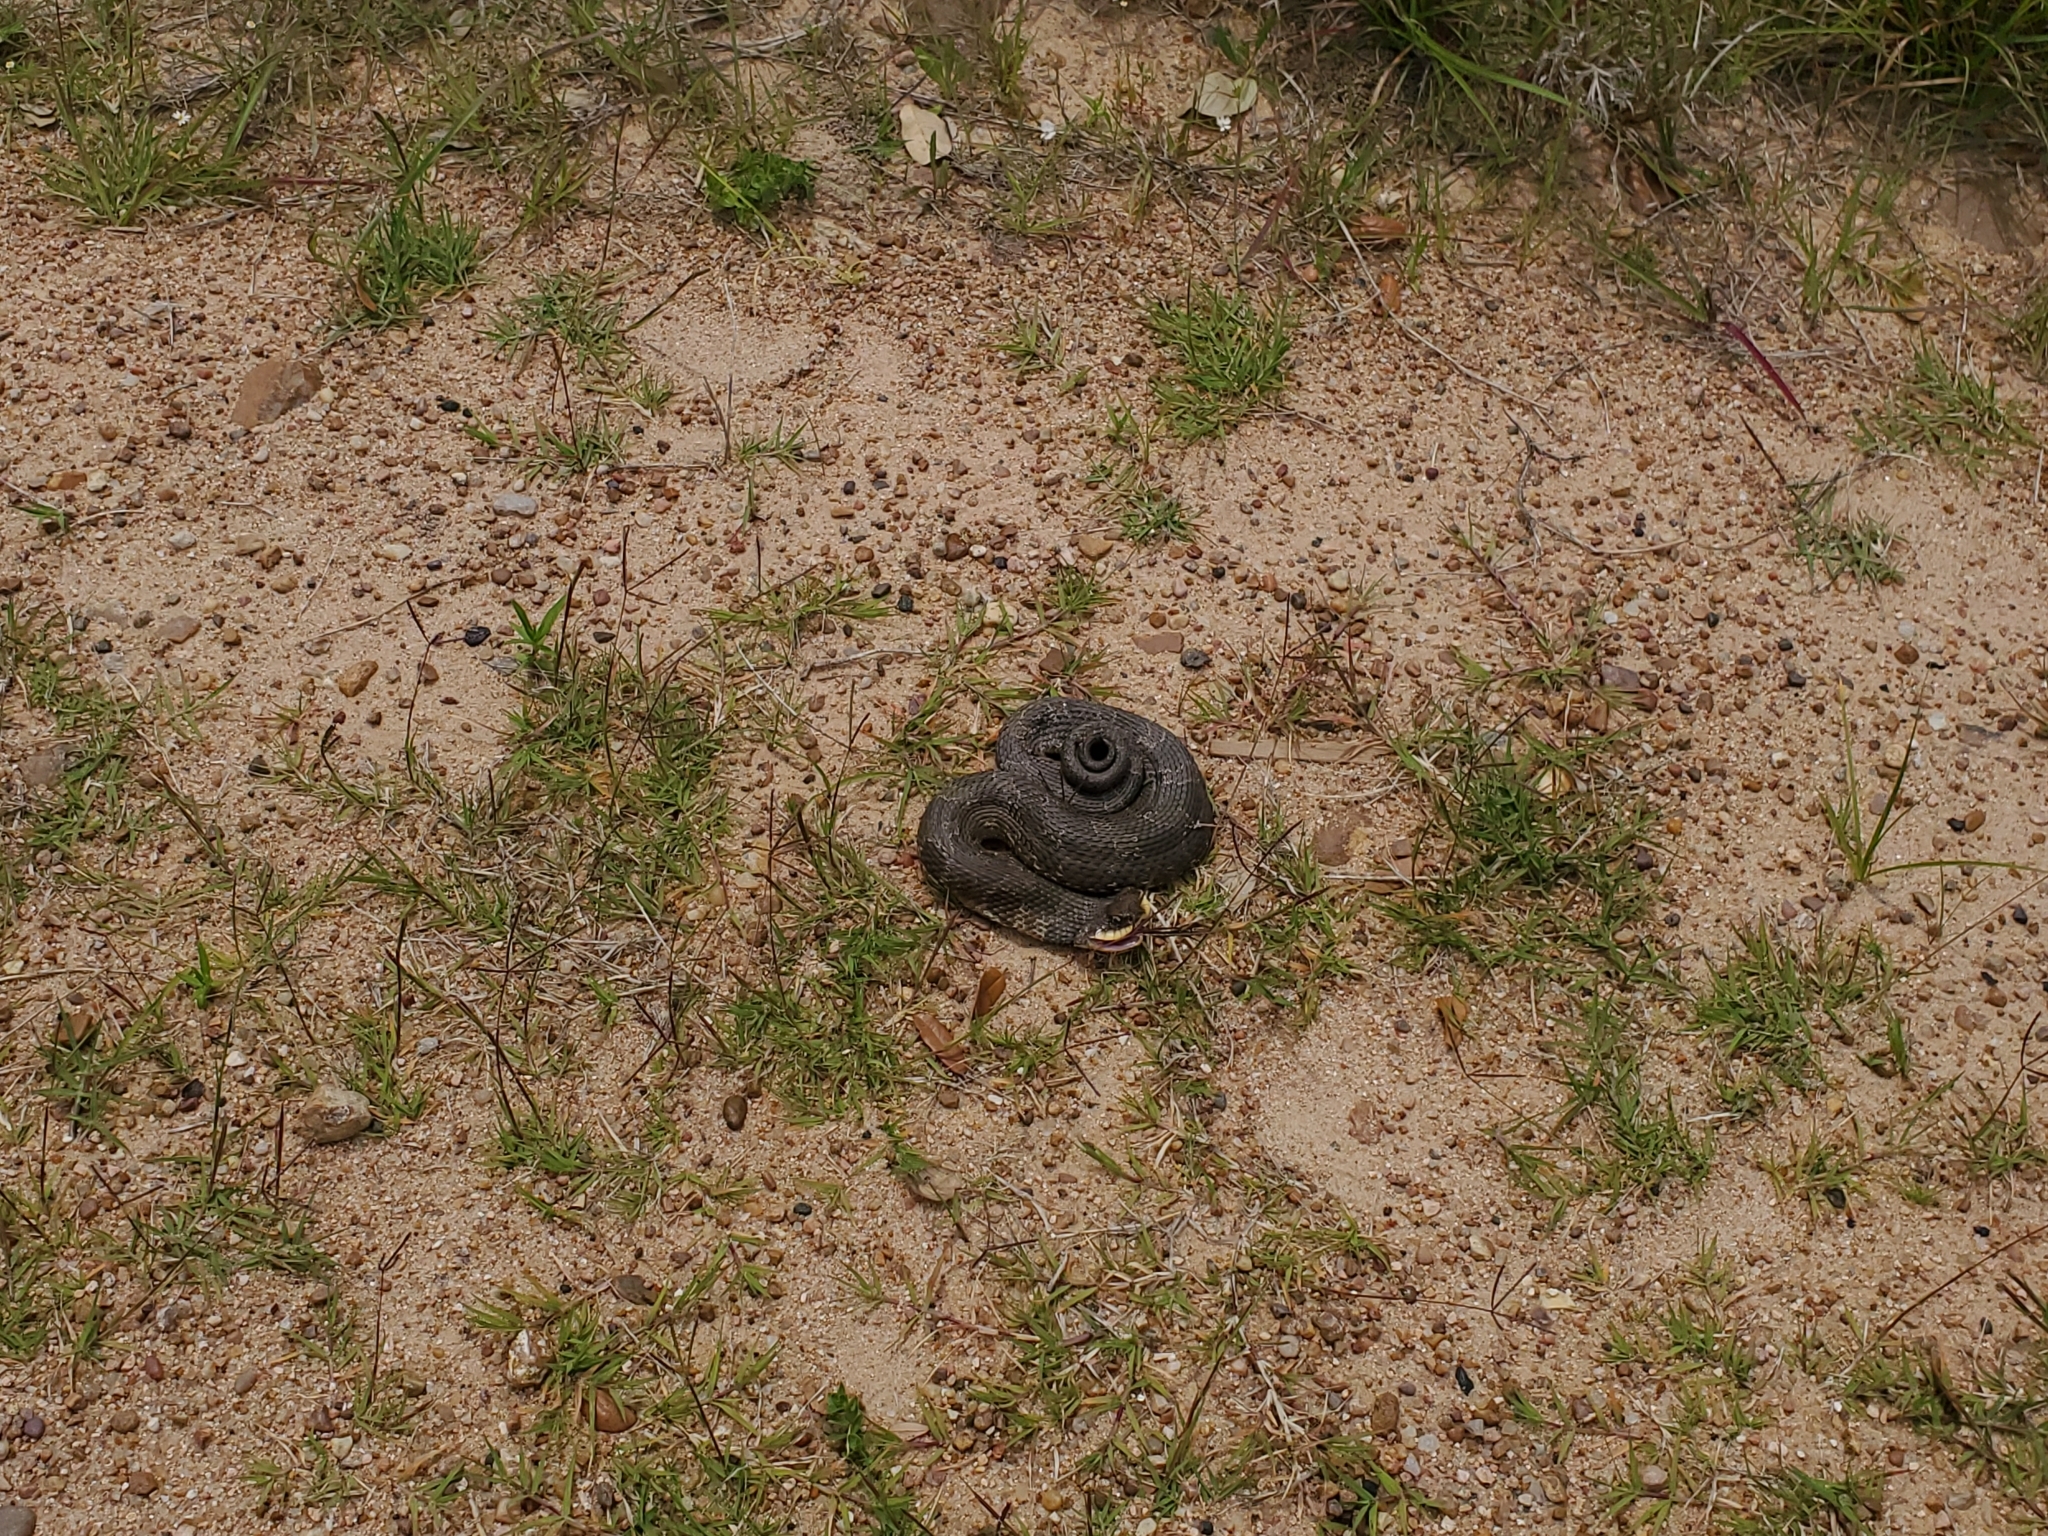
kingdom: Animalia
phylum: Chordata
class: Squamata
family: Colubridae
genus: Heterodon
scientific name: Heterodon platirhinos
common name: Eastern hognose snake
